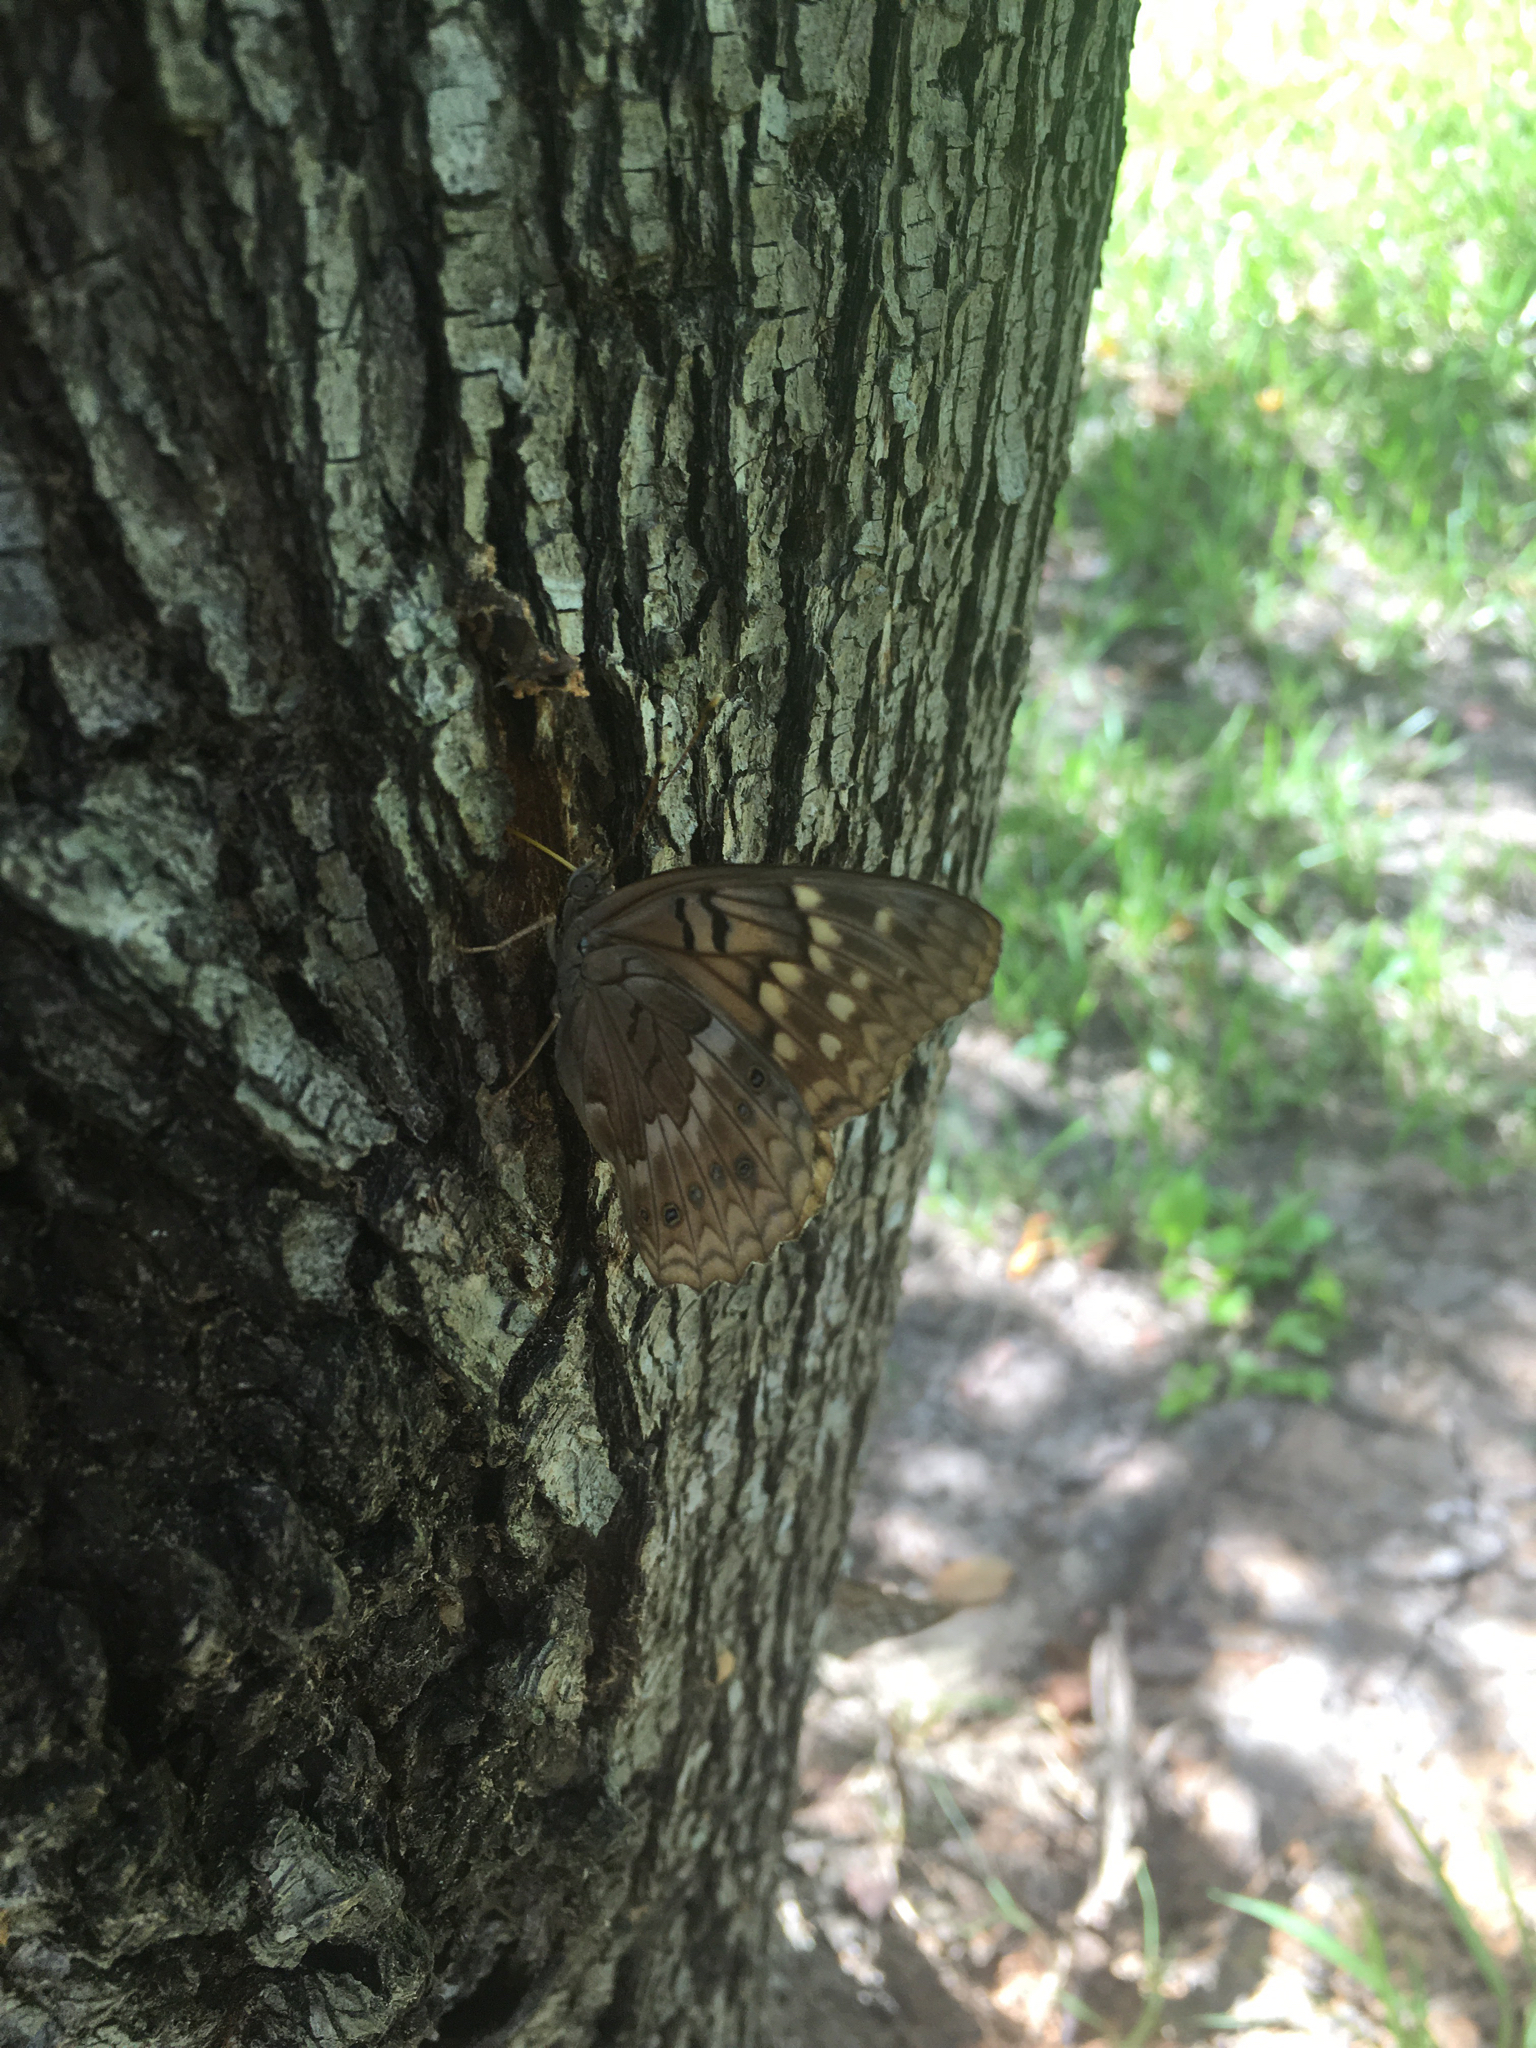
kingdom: Animalia
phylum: Arthropoda
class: Insecta
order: Lepidoptera
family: Nymphalidae
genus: Asterocampa
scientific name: Asterocampa clyton
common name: Tawny emperor
